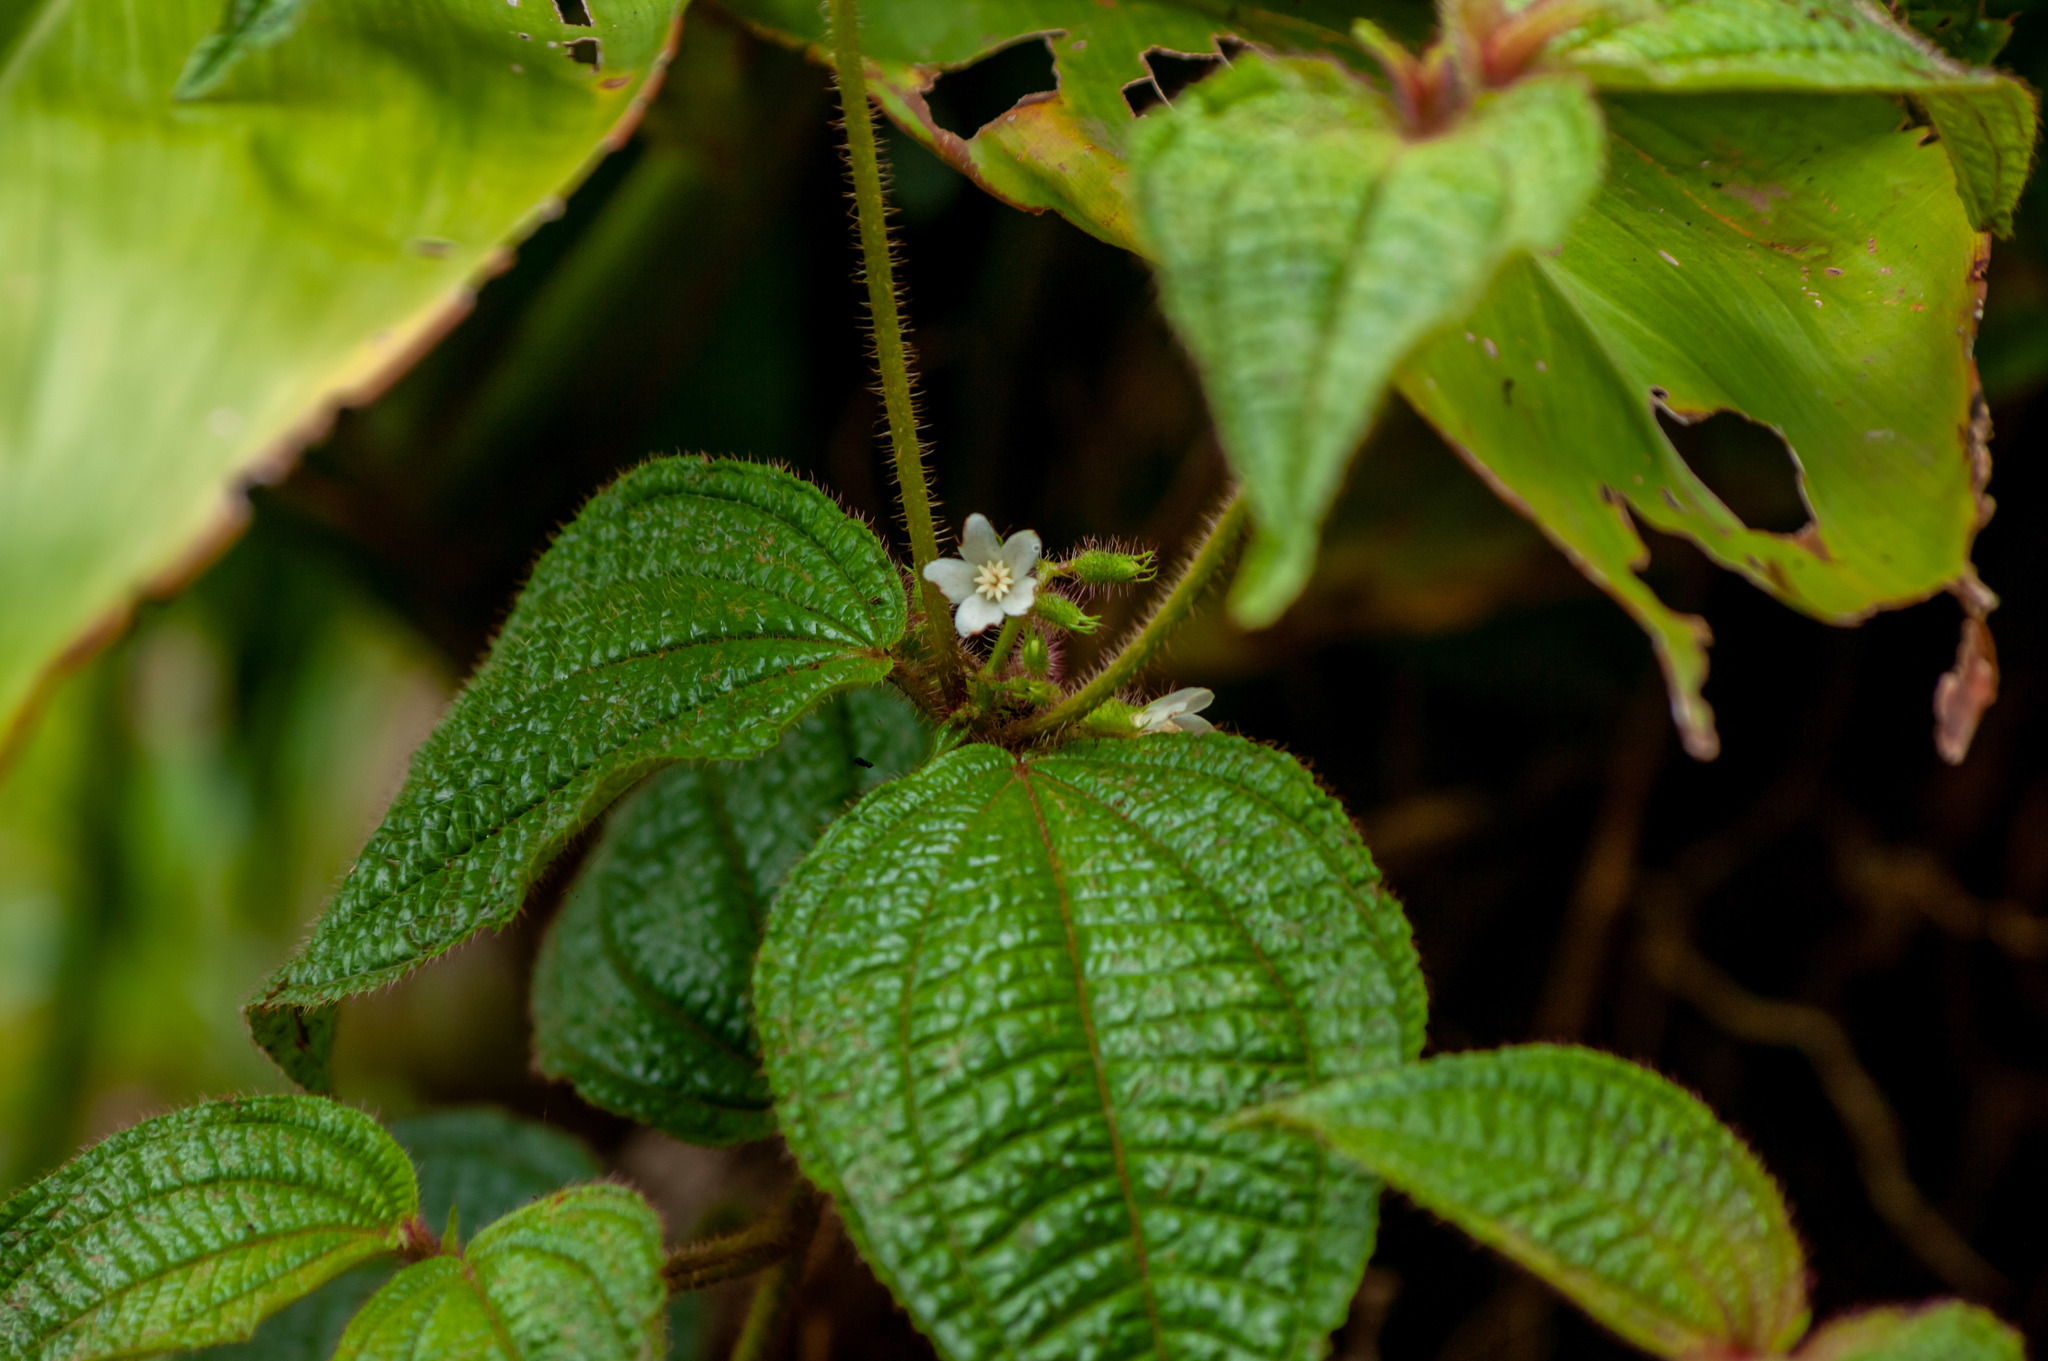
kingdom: Plantae
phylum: Tracheophyta
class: Magnoliopsida
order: Myrtales
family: Melastomataceae
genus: Miconia
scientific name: Miconia crenata
